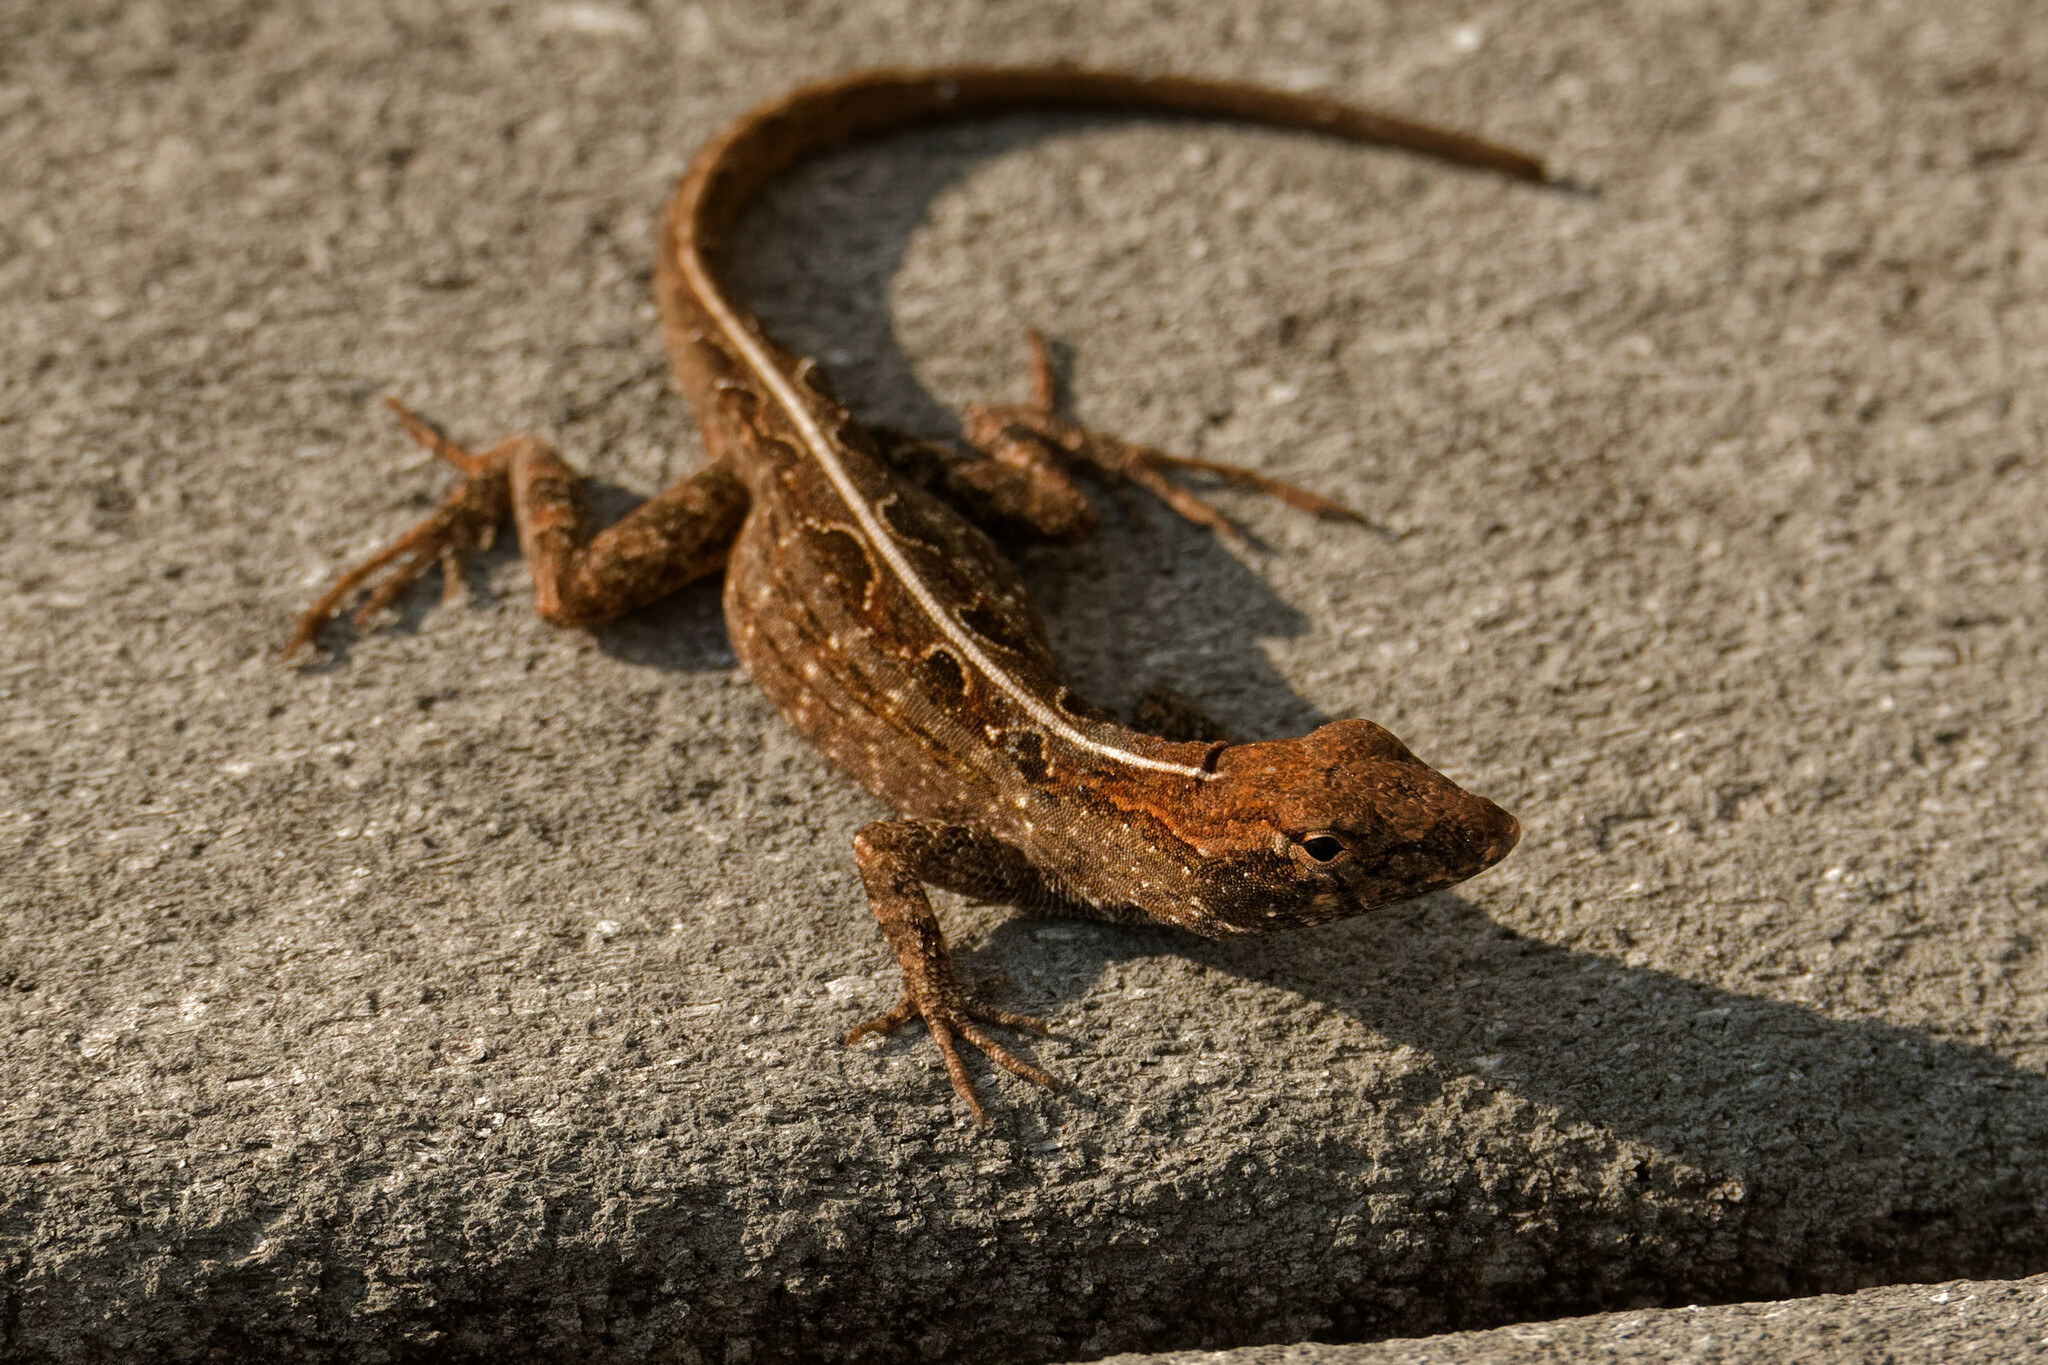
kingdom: Animalia
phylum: Chordata
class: Squamata
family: Dactyloidae
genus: Anolis
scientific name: Anolis sagrei
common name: Brown anole
